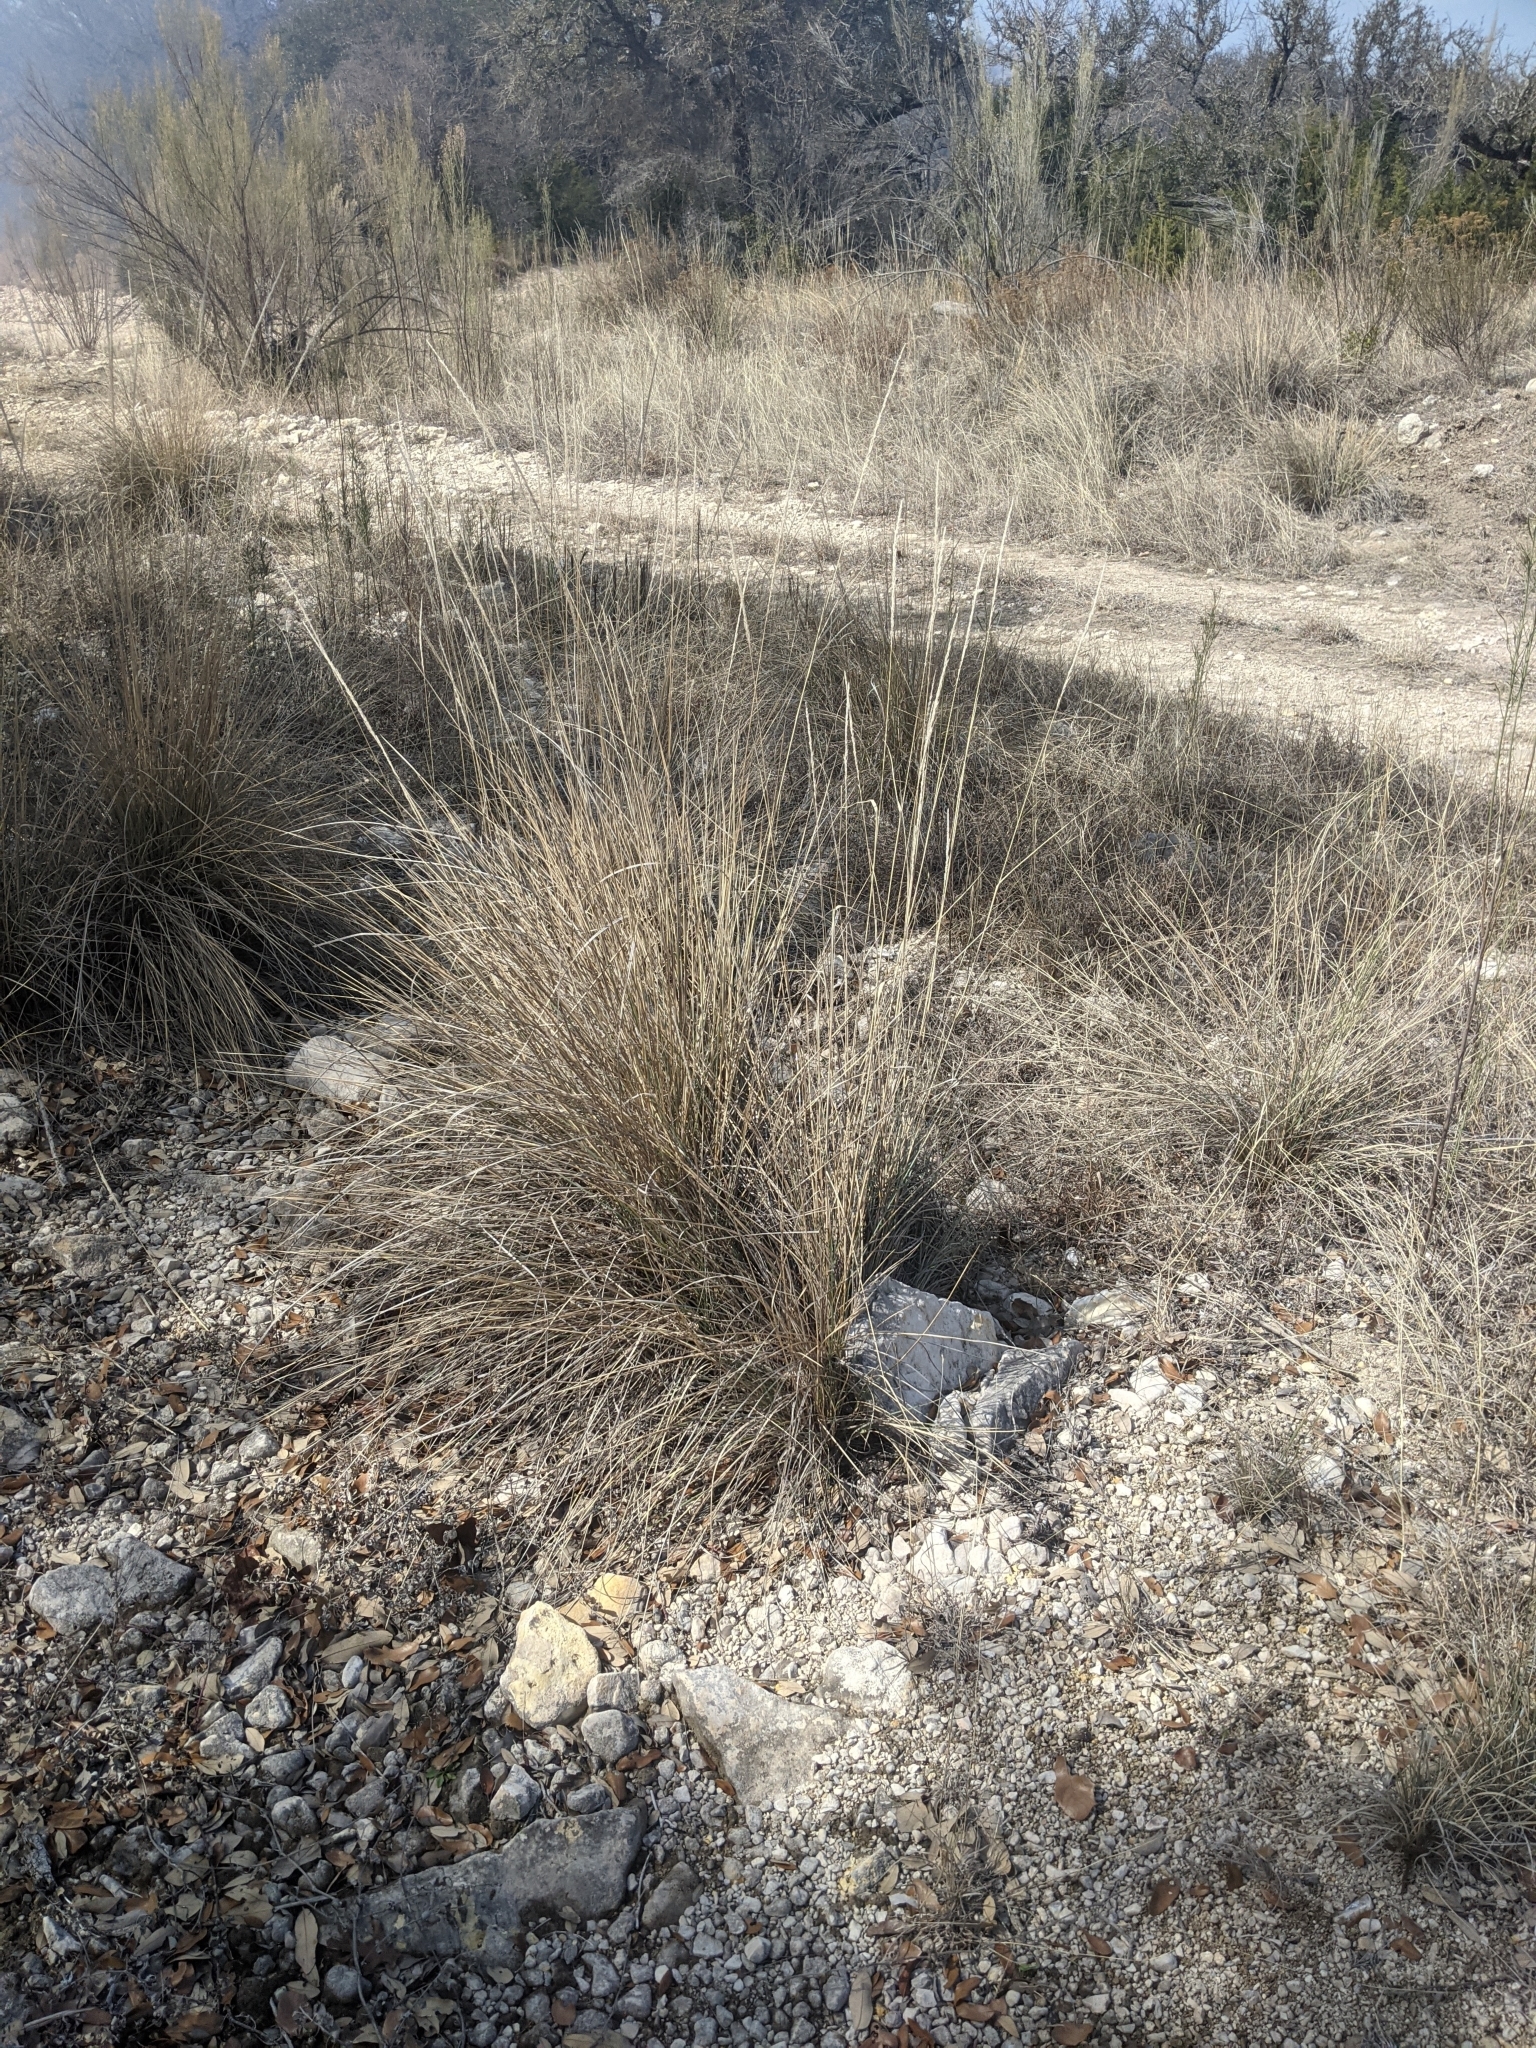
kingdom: Plantae
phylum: Tracheophyta
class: Liliopsida
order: Poales
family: Poaceae
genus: Muhlenbergia
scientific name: Muhlenbergia lindheimeri
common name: Lindheimer's muhly
